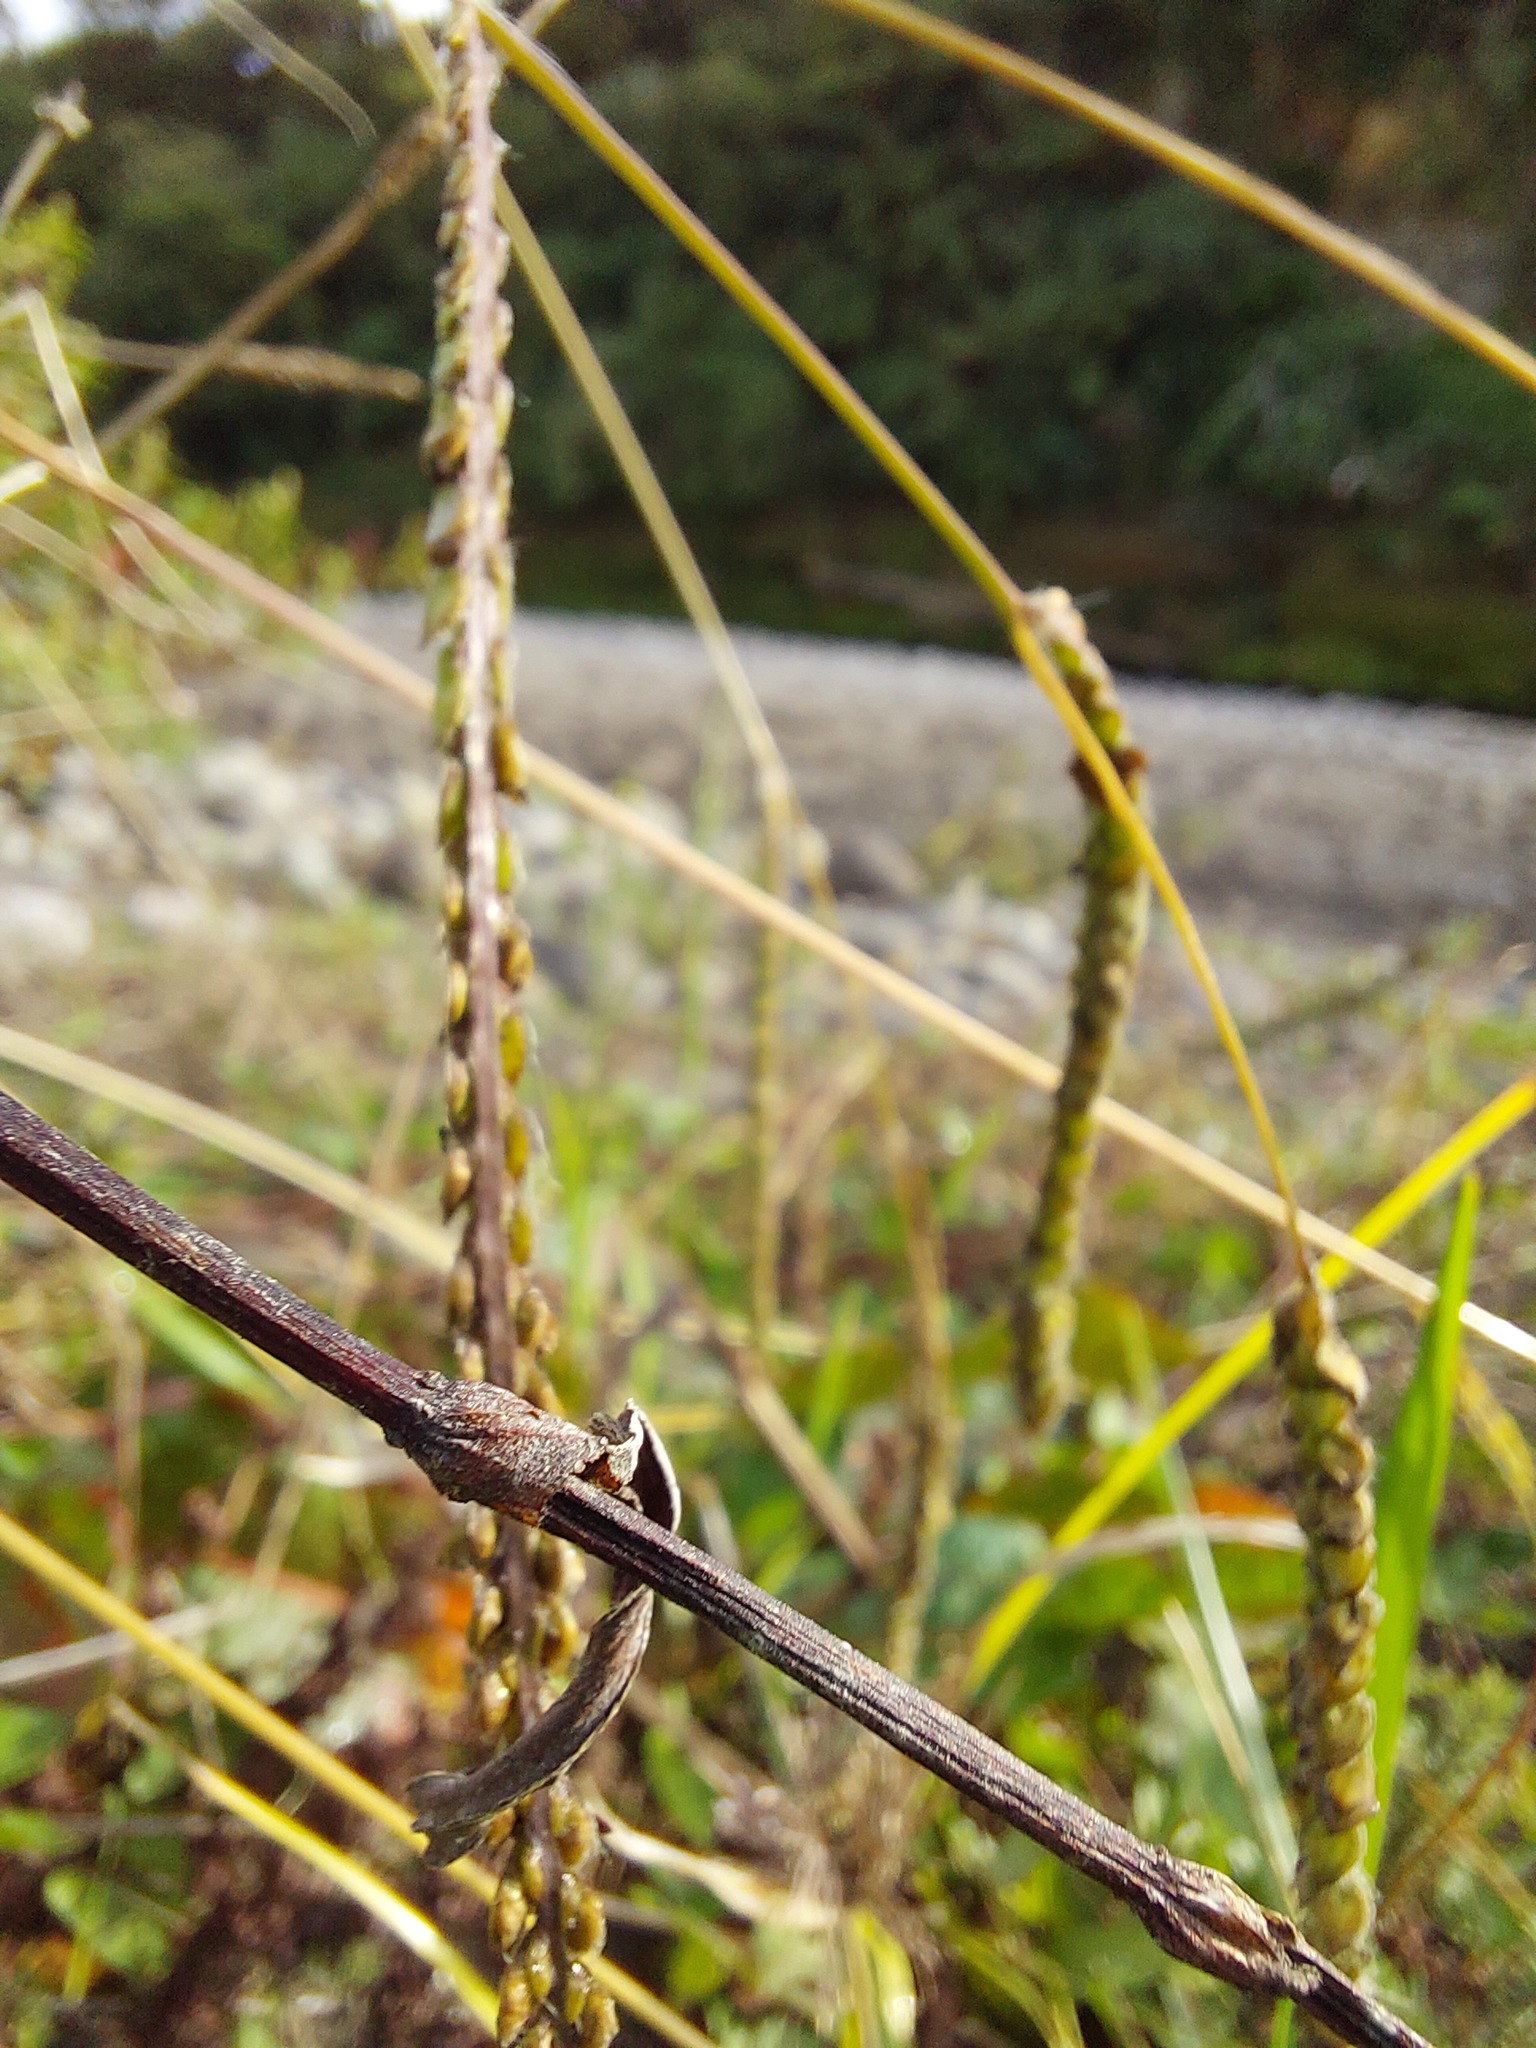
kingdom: Plantae
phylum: Tracheophyta
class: Liliopsida
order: Poales
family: Poaceae
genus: Paspalum
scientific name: Paspalum dilatatum
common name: Dallisgrass
